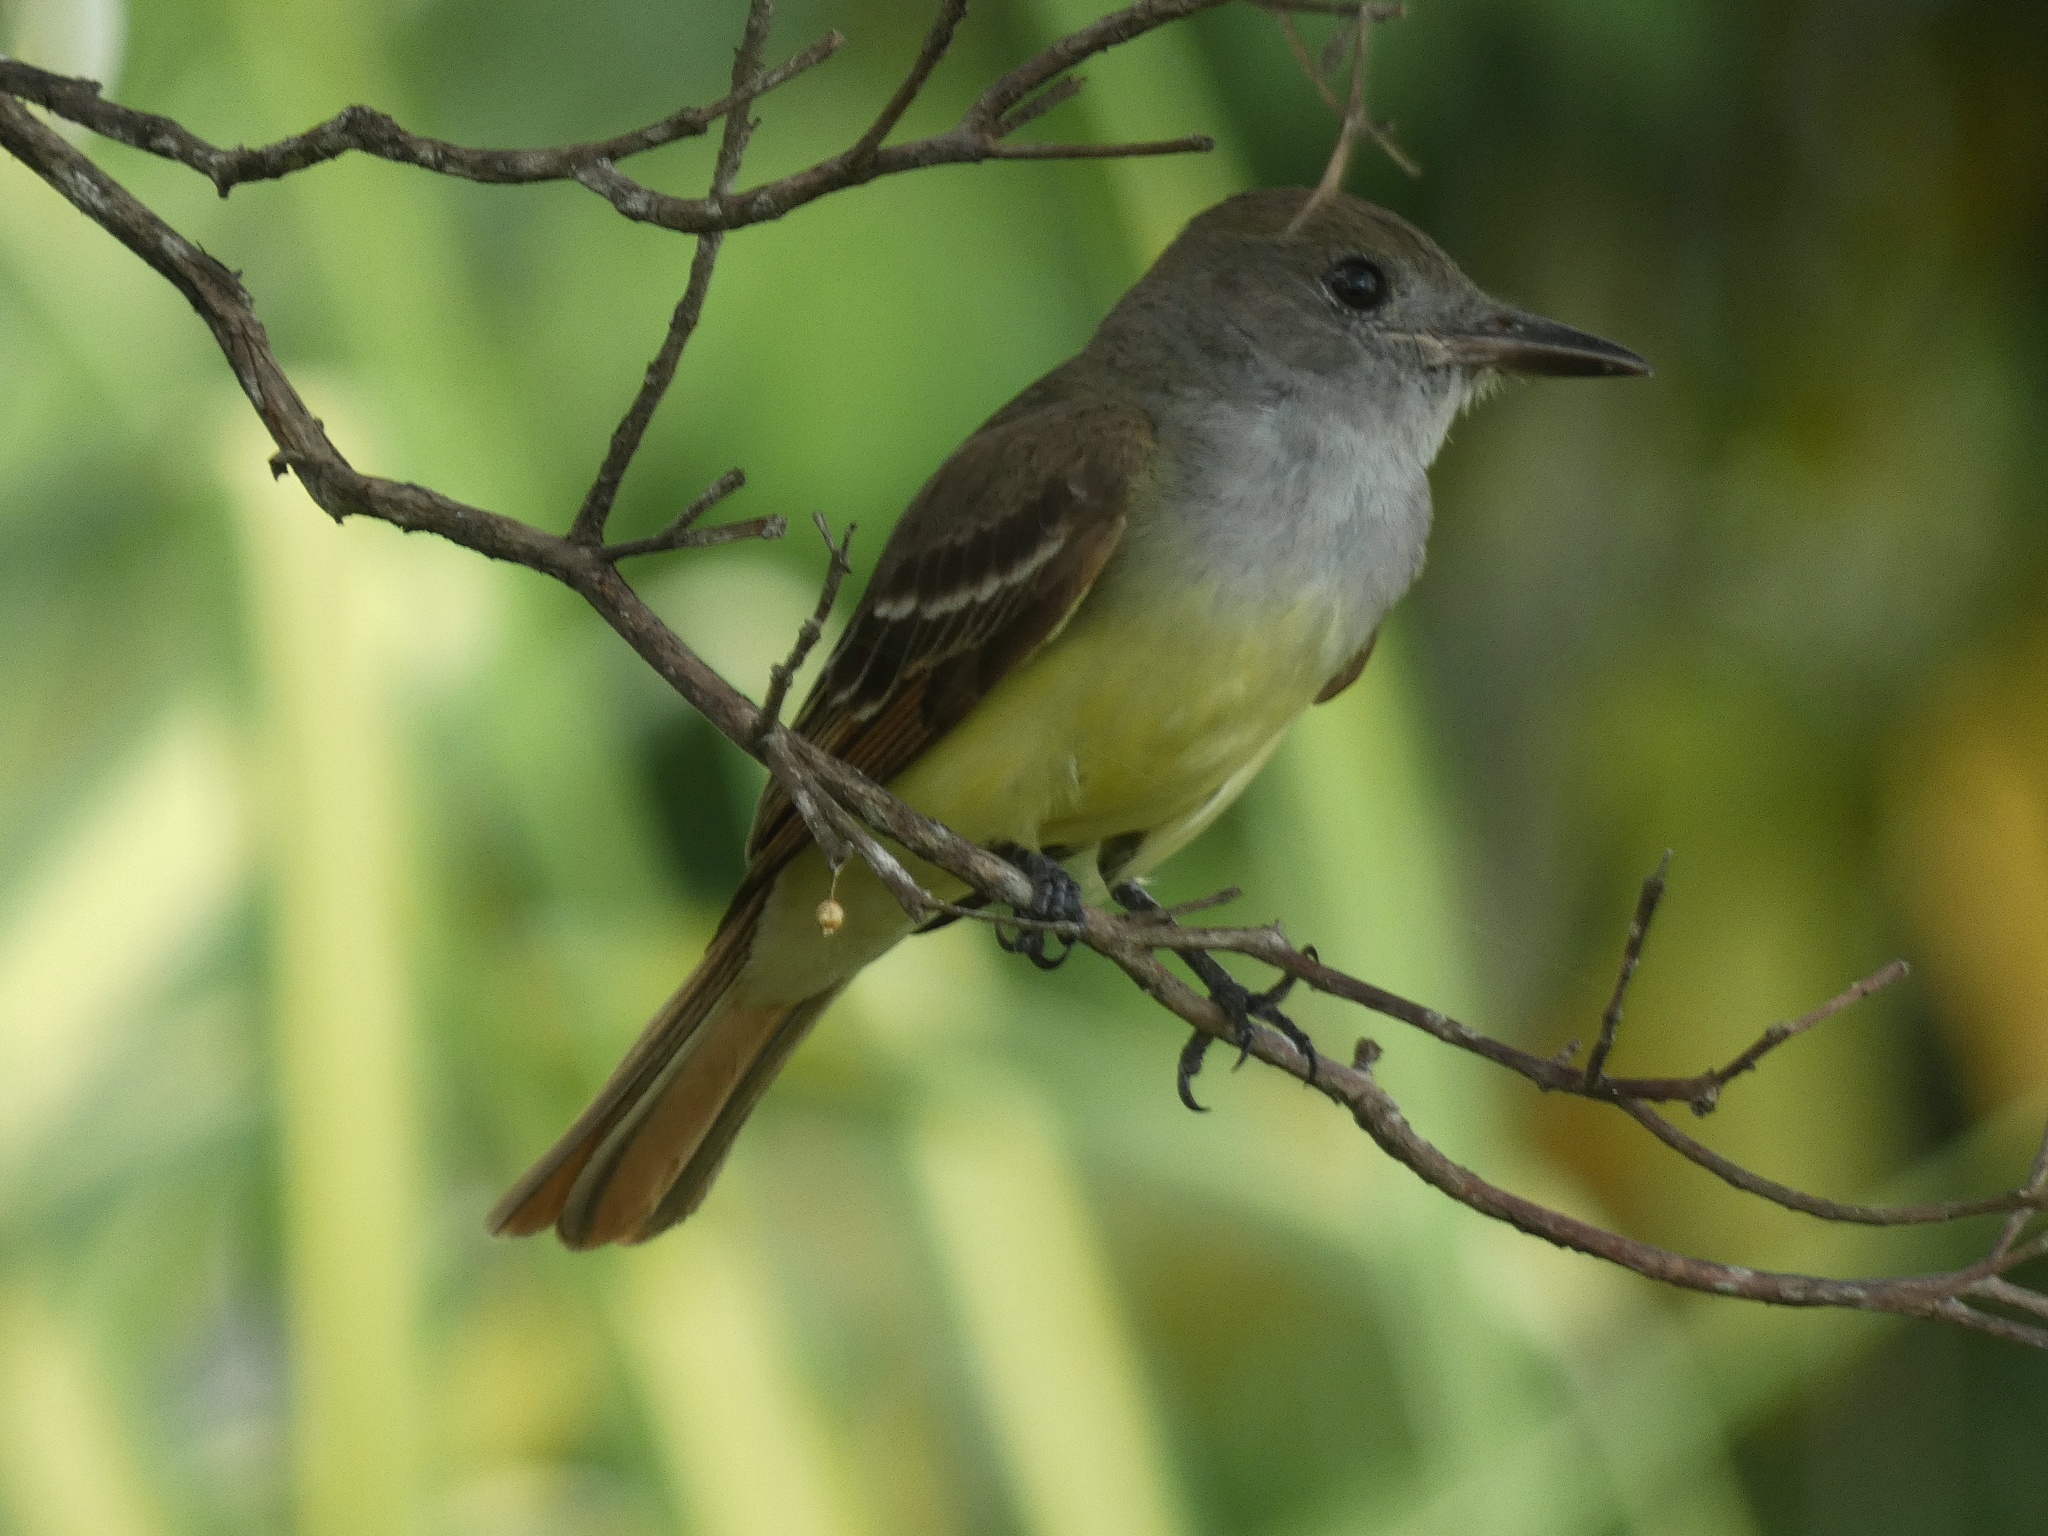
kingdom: Animalia
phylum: Chordata
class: Aves
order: Passeriformes
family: Tyrannidae
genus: Myiarchus
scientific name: Myiarchus crinitus
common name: Great crested flycatcher
